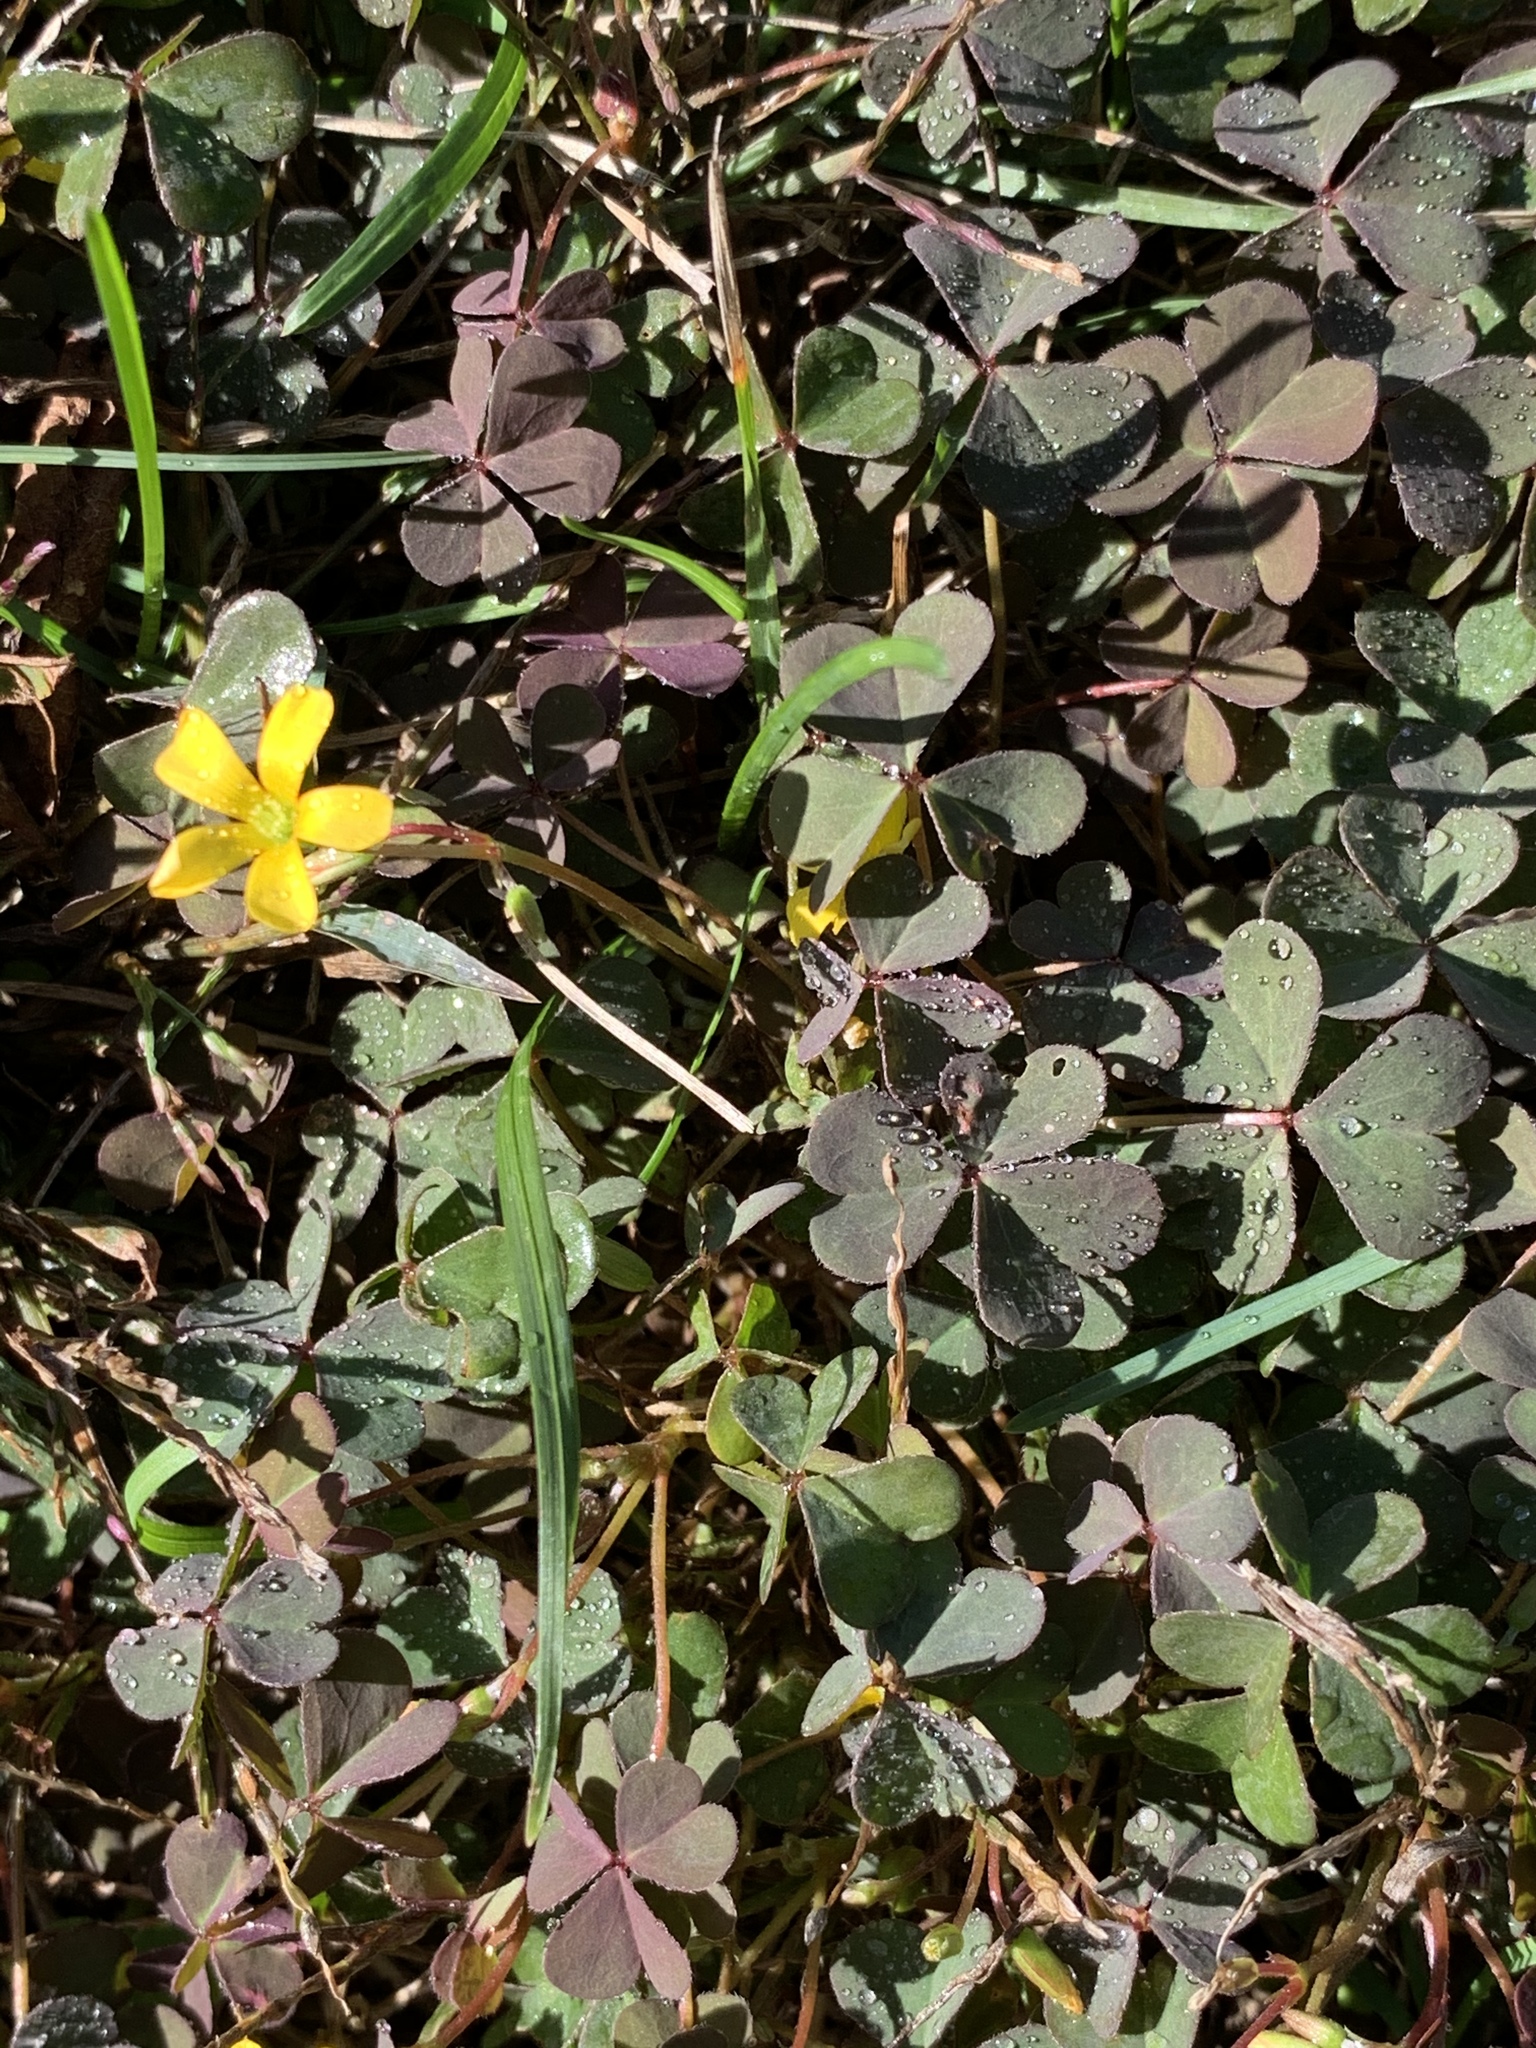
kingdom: Plantae
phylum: Tracheophyta
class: Magnoliopsida
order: Oxalidales
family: Oxalidaceae
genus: Oxalis
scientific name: Oxalis corniculata
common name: Procumbent yellow-sorrel
